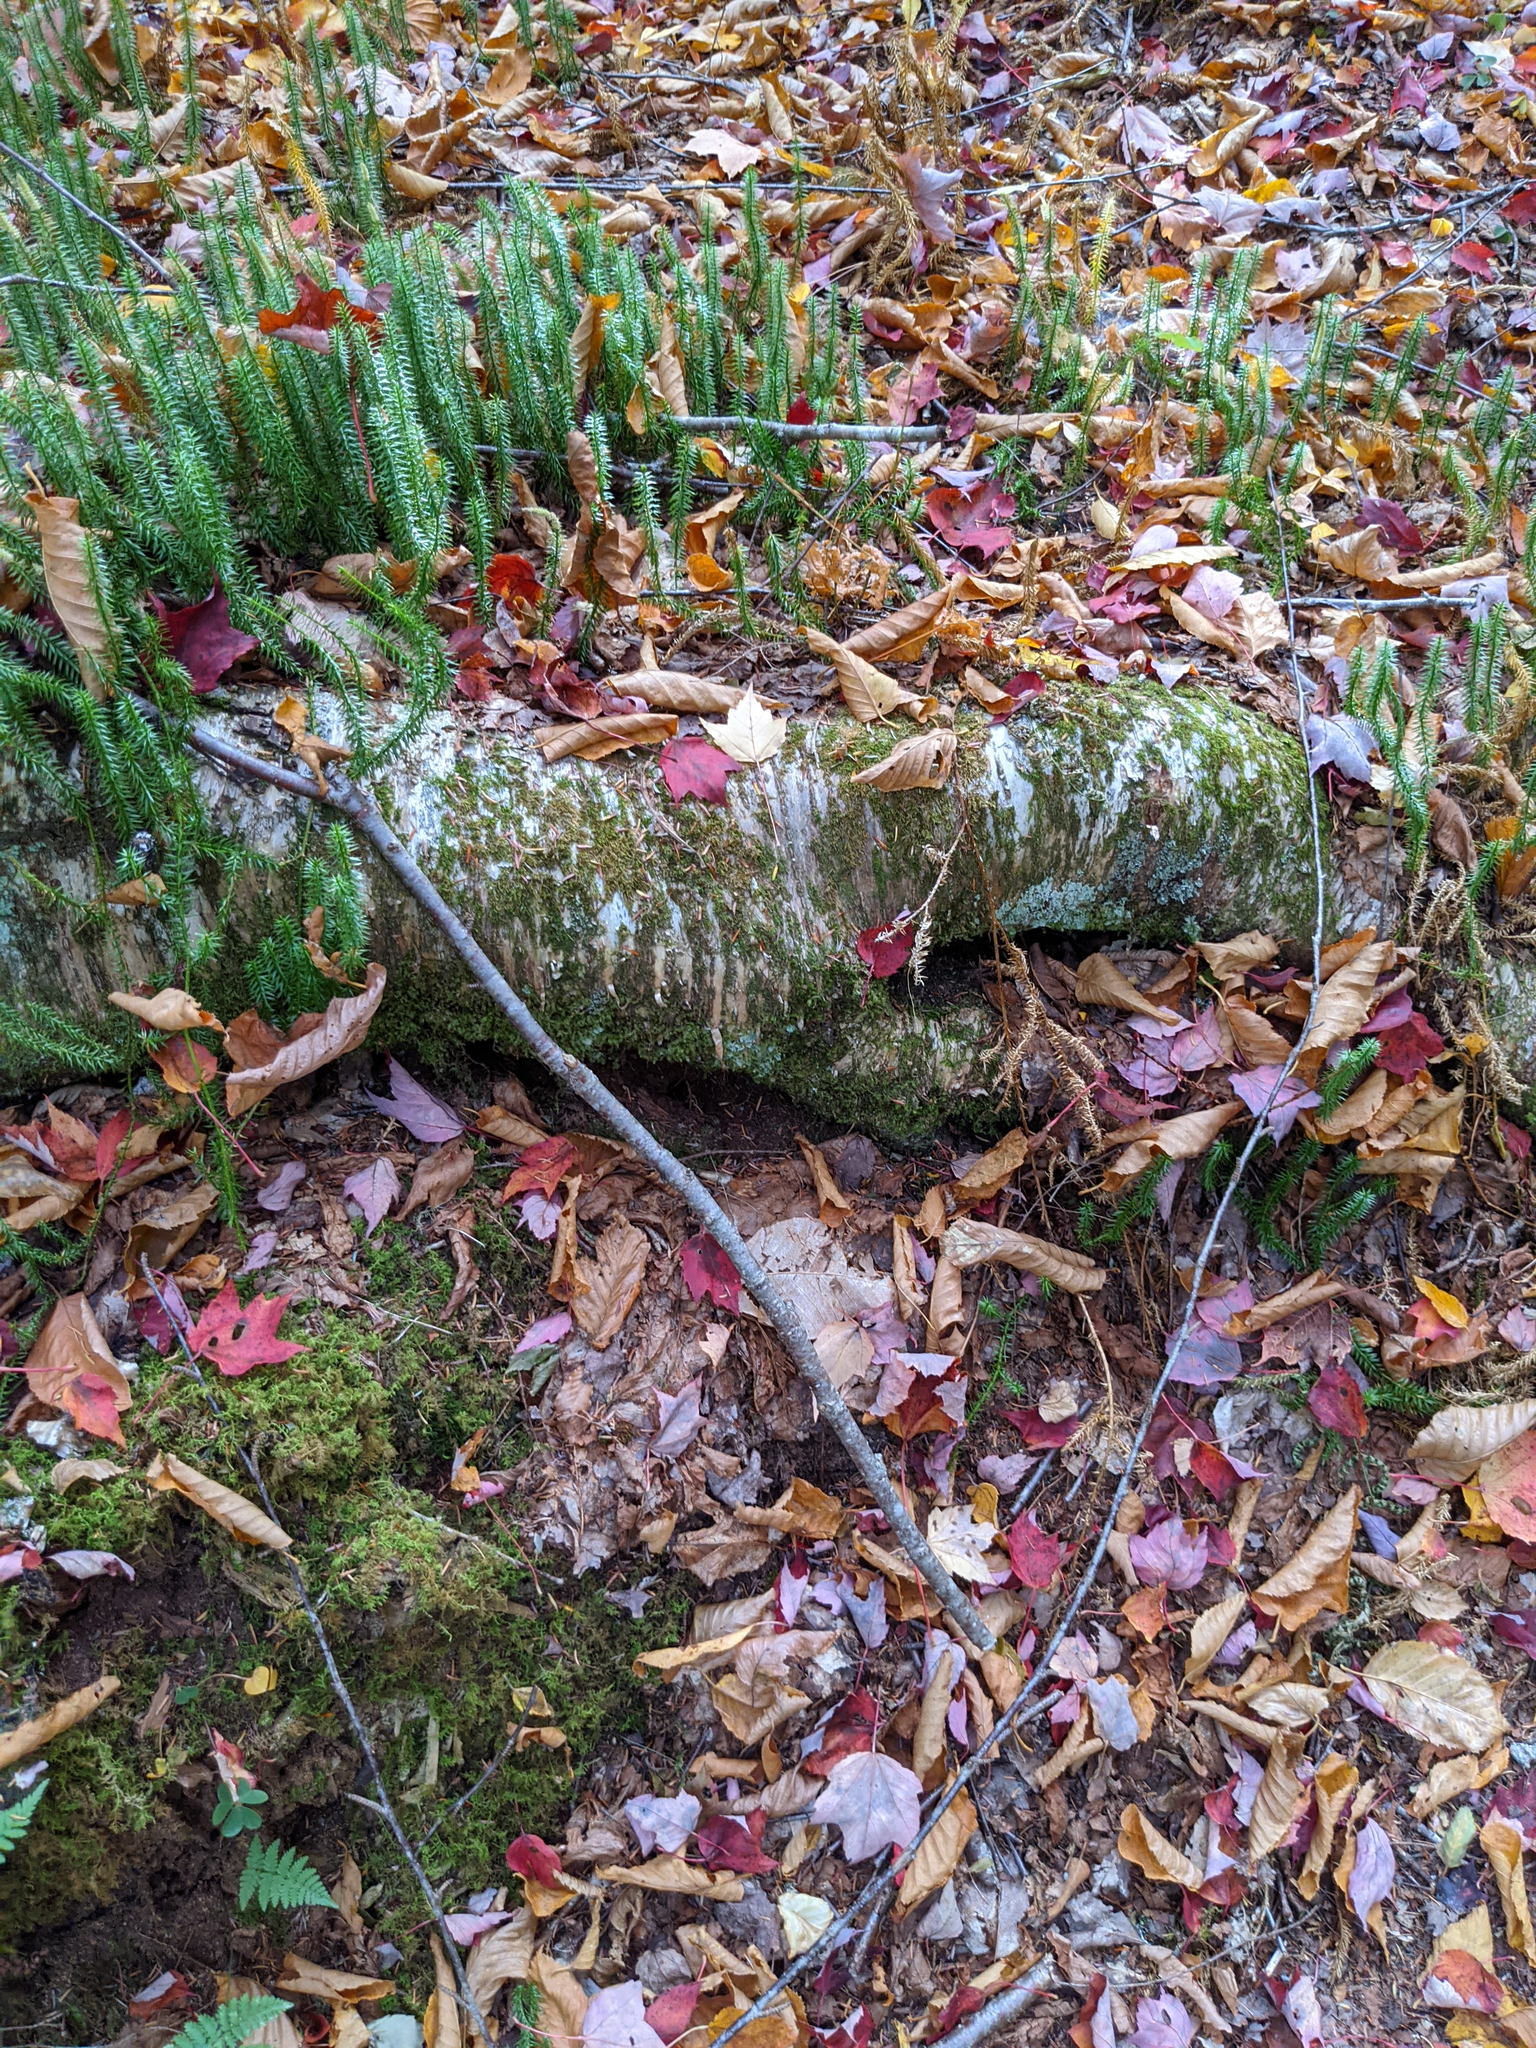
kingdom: Plantae
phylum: Tracheophyta
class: Magnoliopsida
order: Fagales
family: Betulaceae
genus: Betula
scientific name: Betula alleghaniensis
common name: Yellow birch
